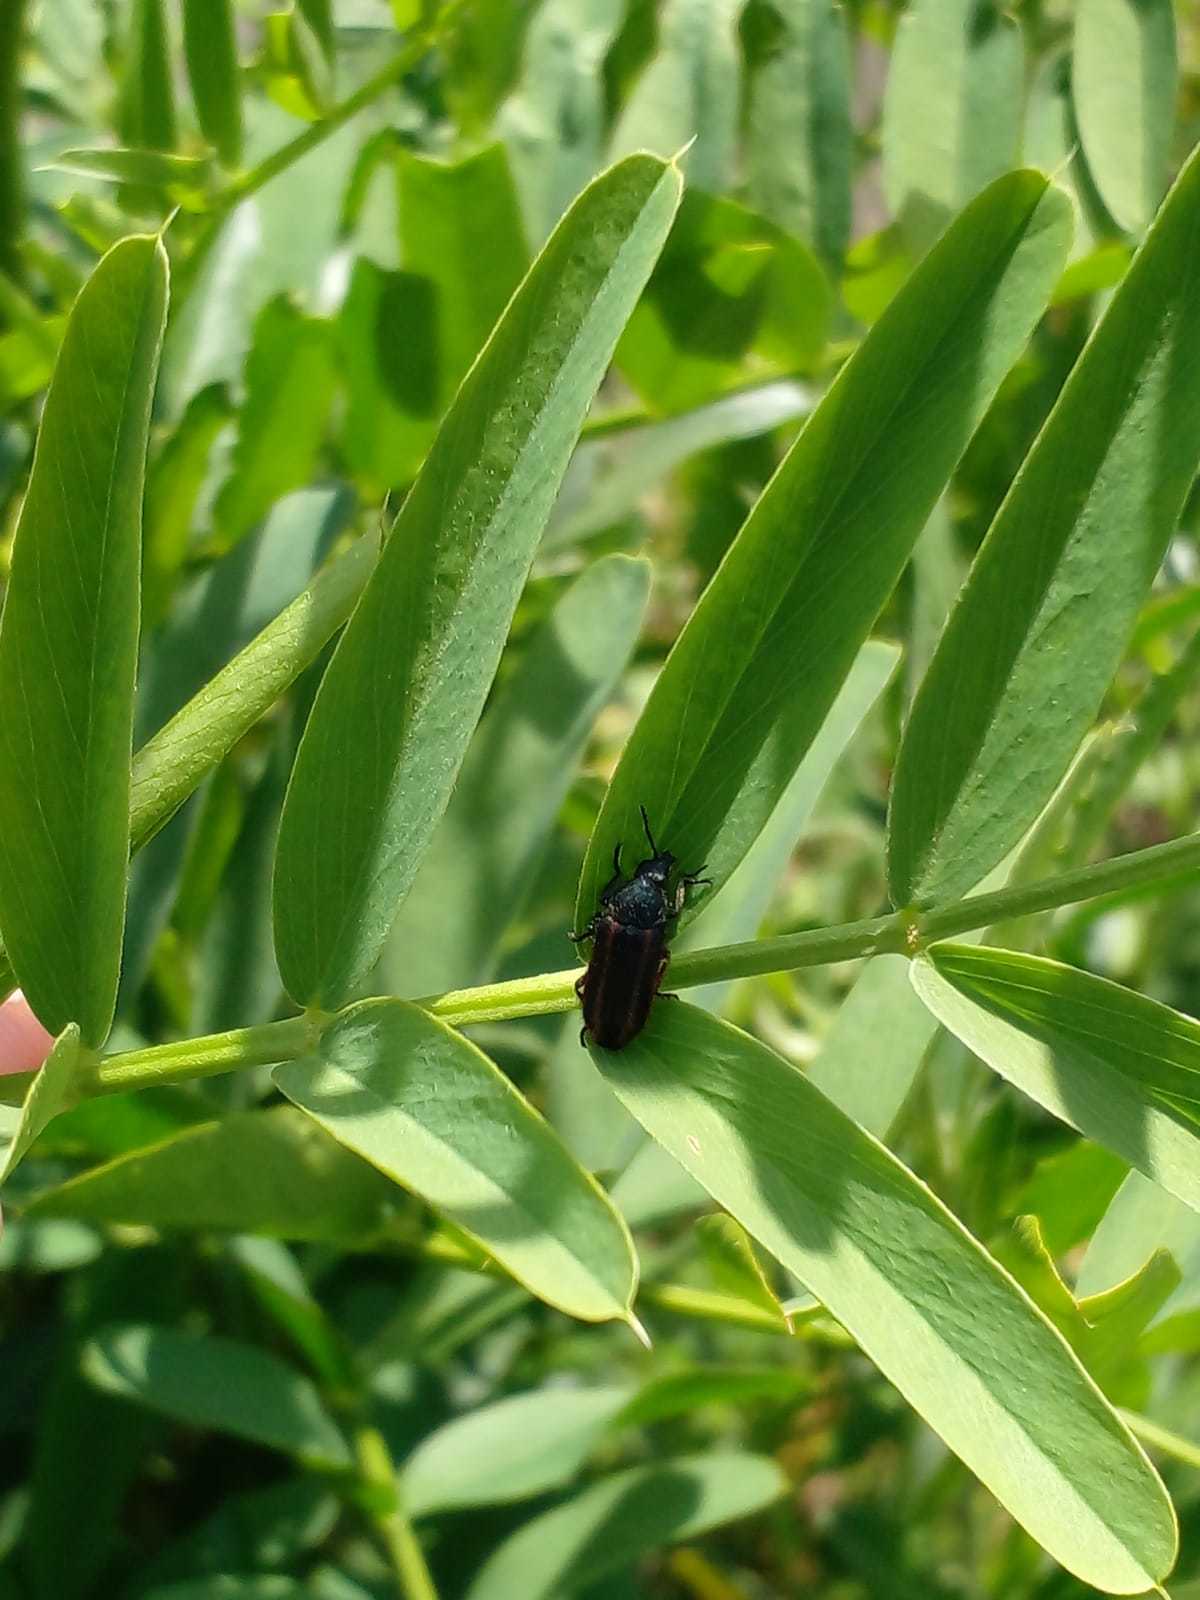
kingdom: Animalia
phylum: Arthropoda
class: Insecta
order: Coleoptera
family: Melyridae
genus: Astylus
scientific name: Astylus
